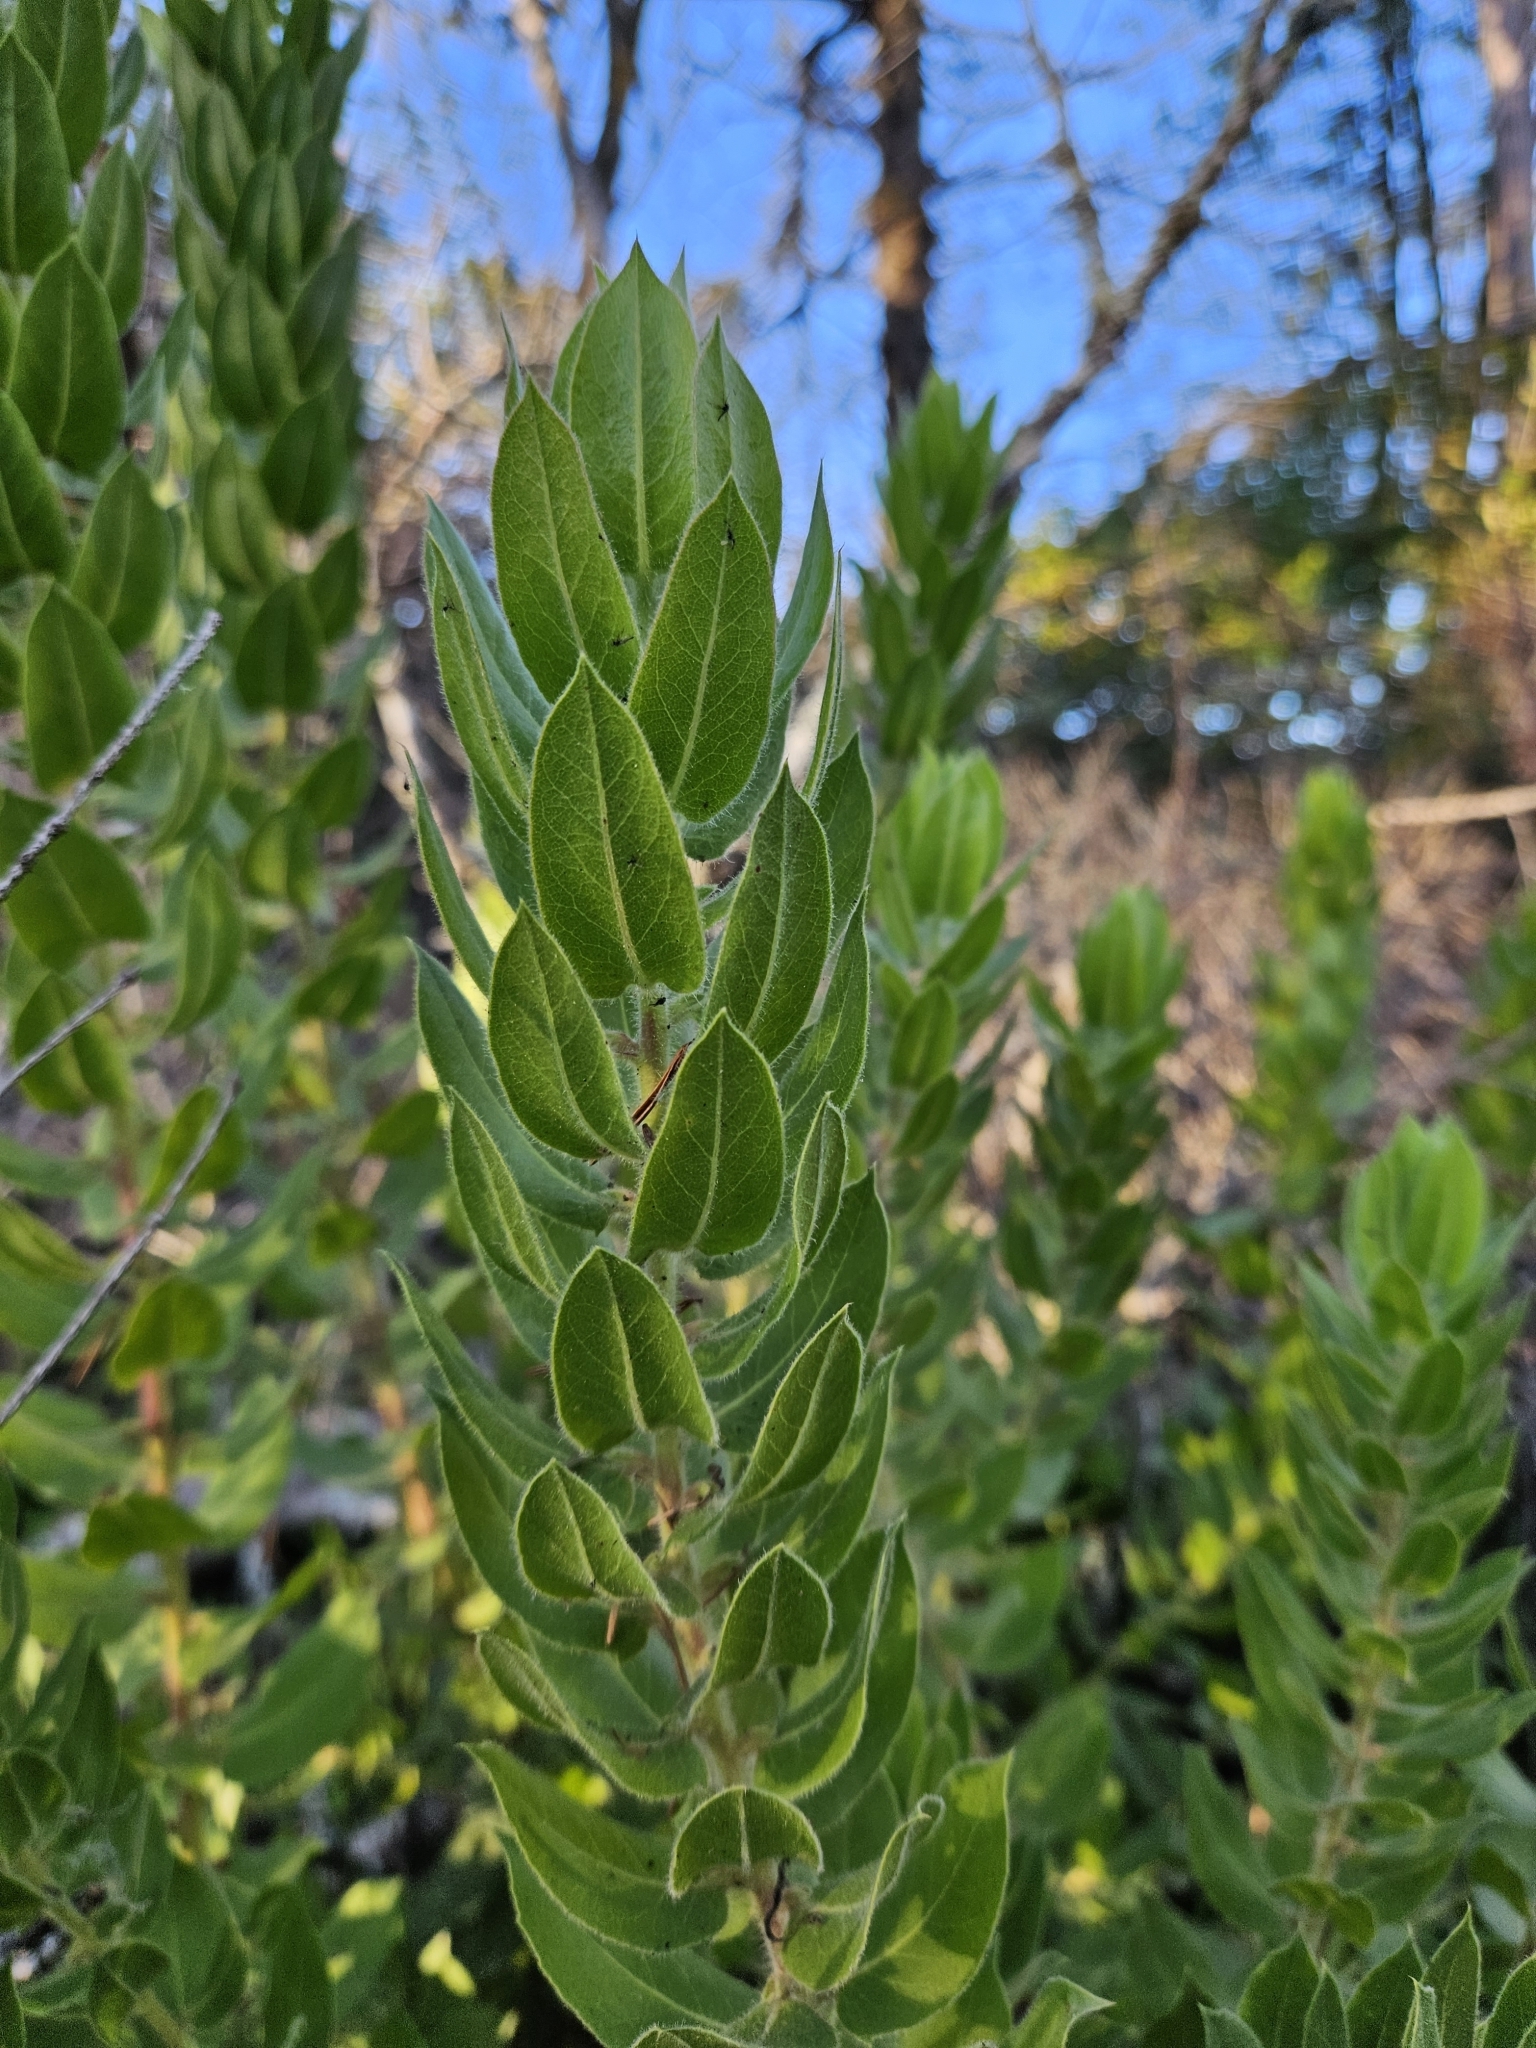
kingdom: Plantae
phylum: Tracheophyta
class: Magnoliopsida
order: Ericales
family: Ericaceae
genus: Arctostaphylos
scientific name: Arctostaphylos virgata
